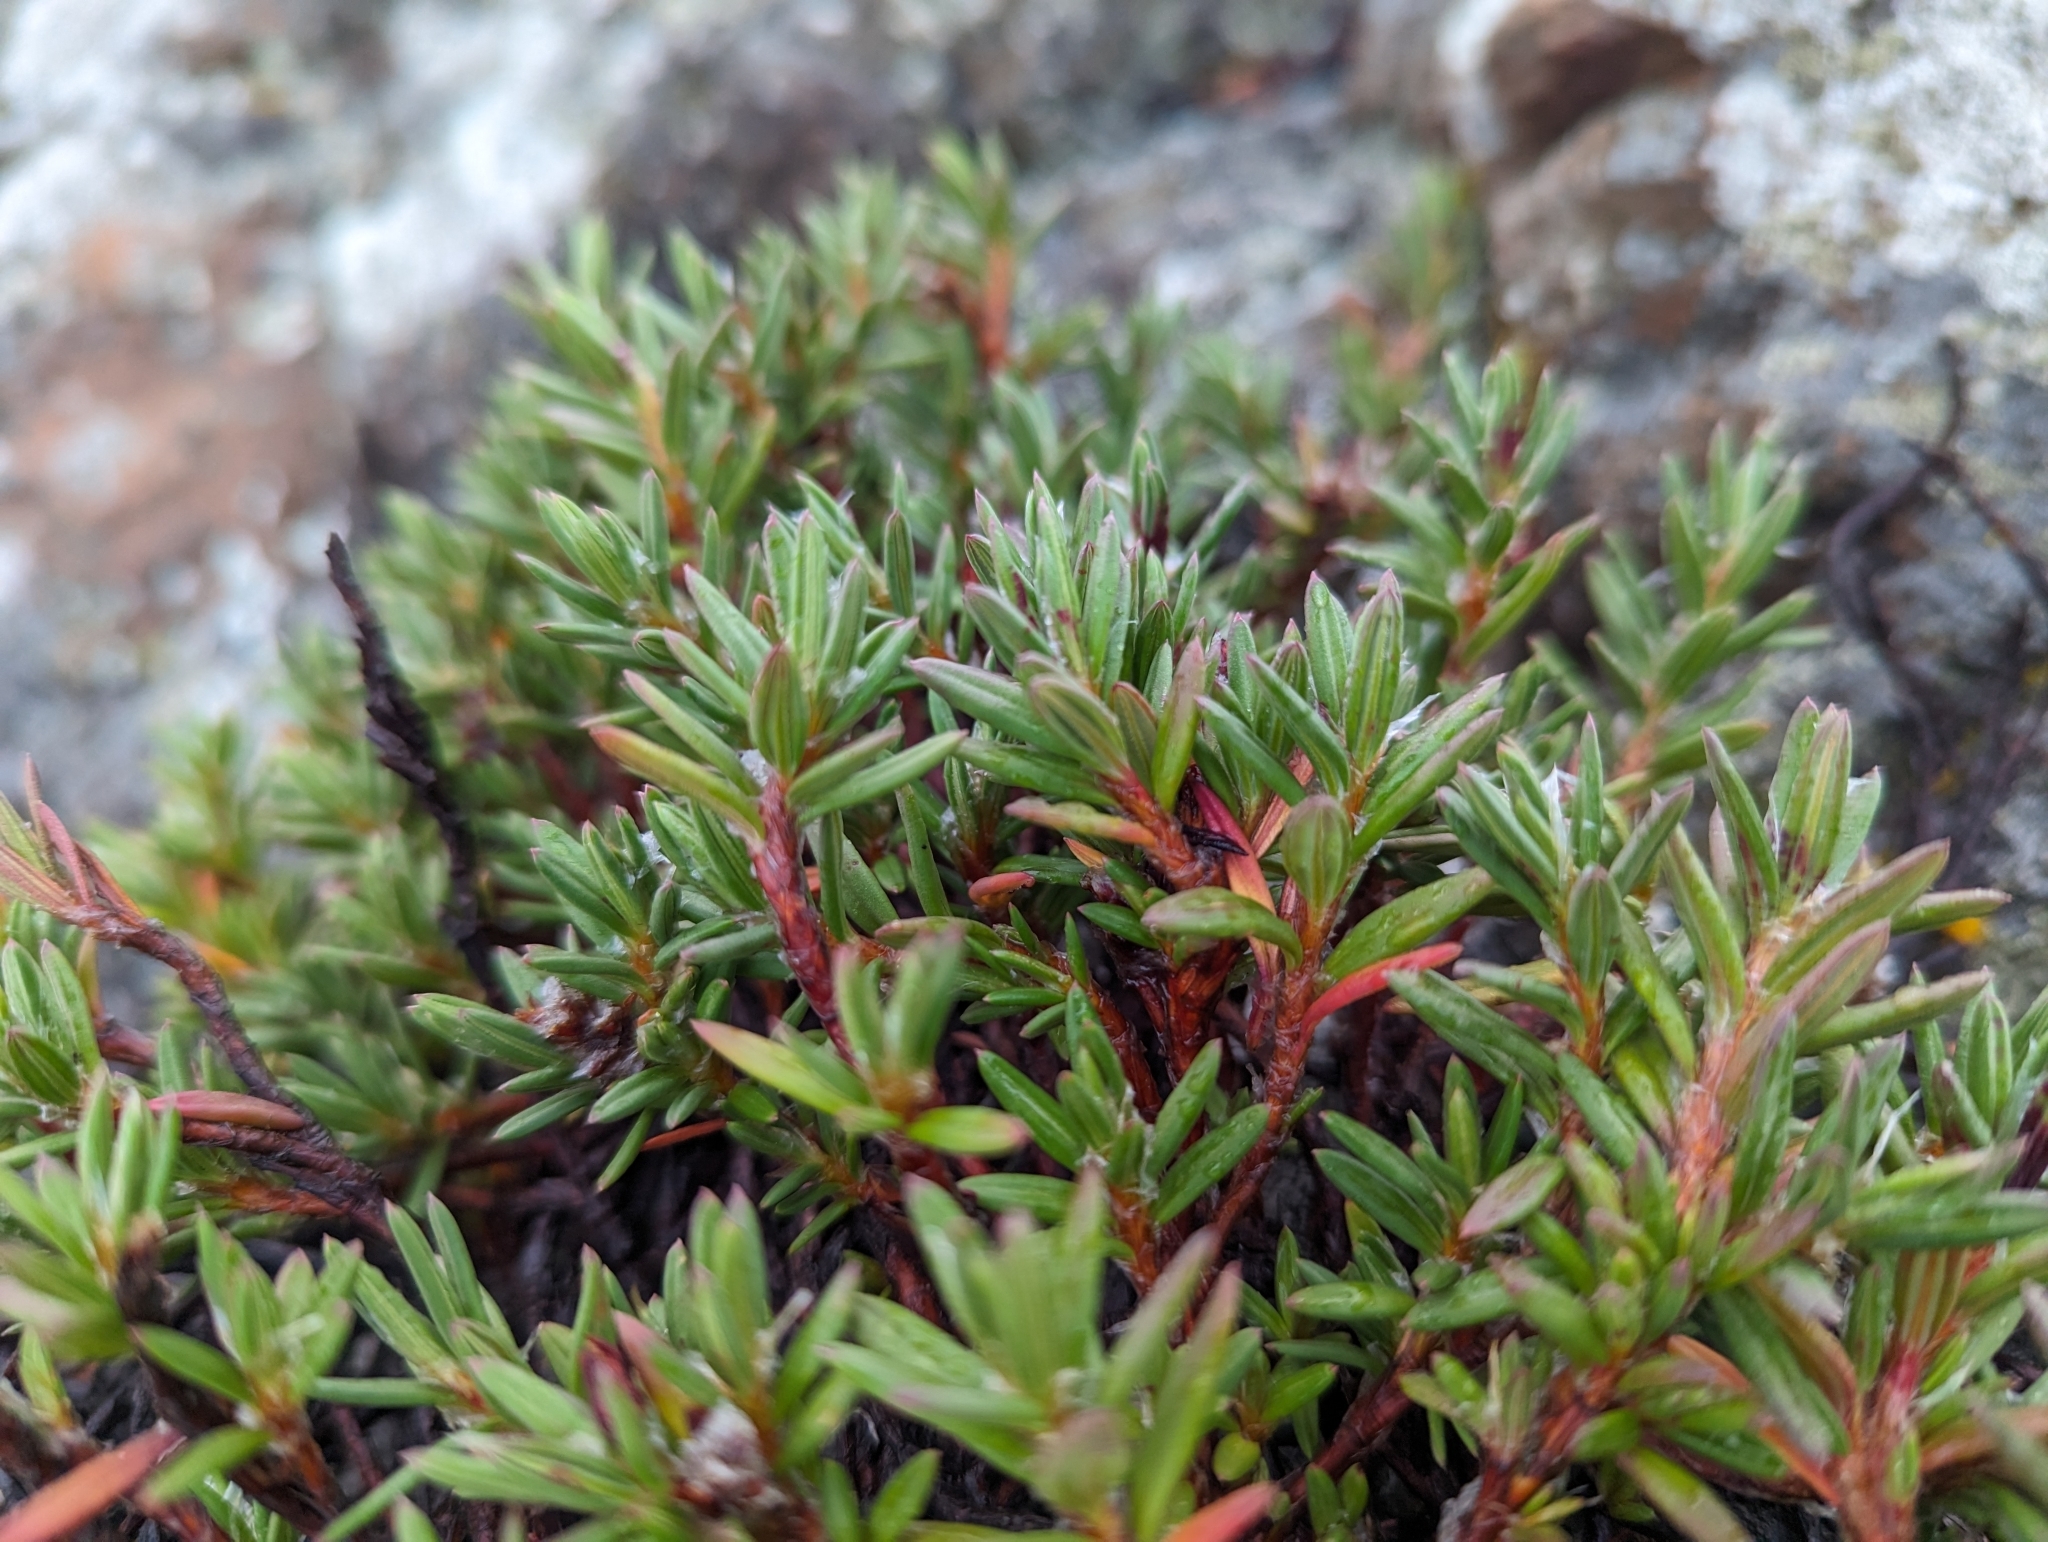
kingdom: Plantae
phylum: Tracheophyta
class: Magnoliopsida
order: Caryophyllales
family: Polygonaceae
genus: Polygonum
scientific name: Polygonum paronychia
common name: Dune knotweed
